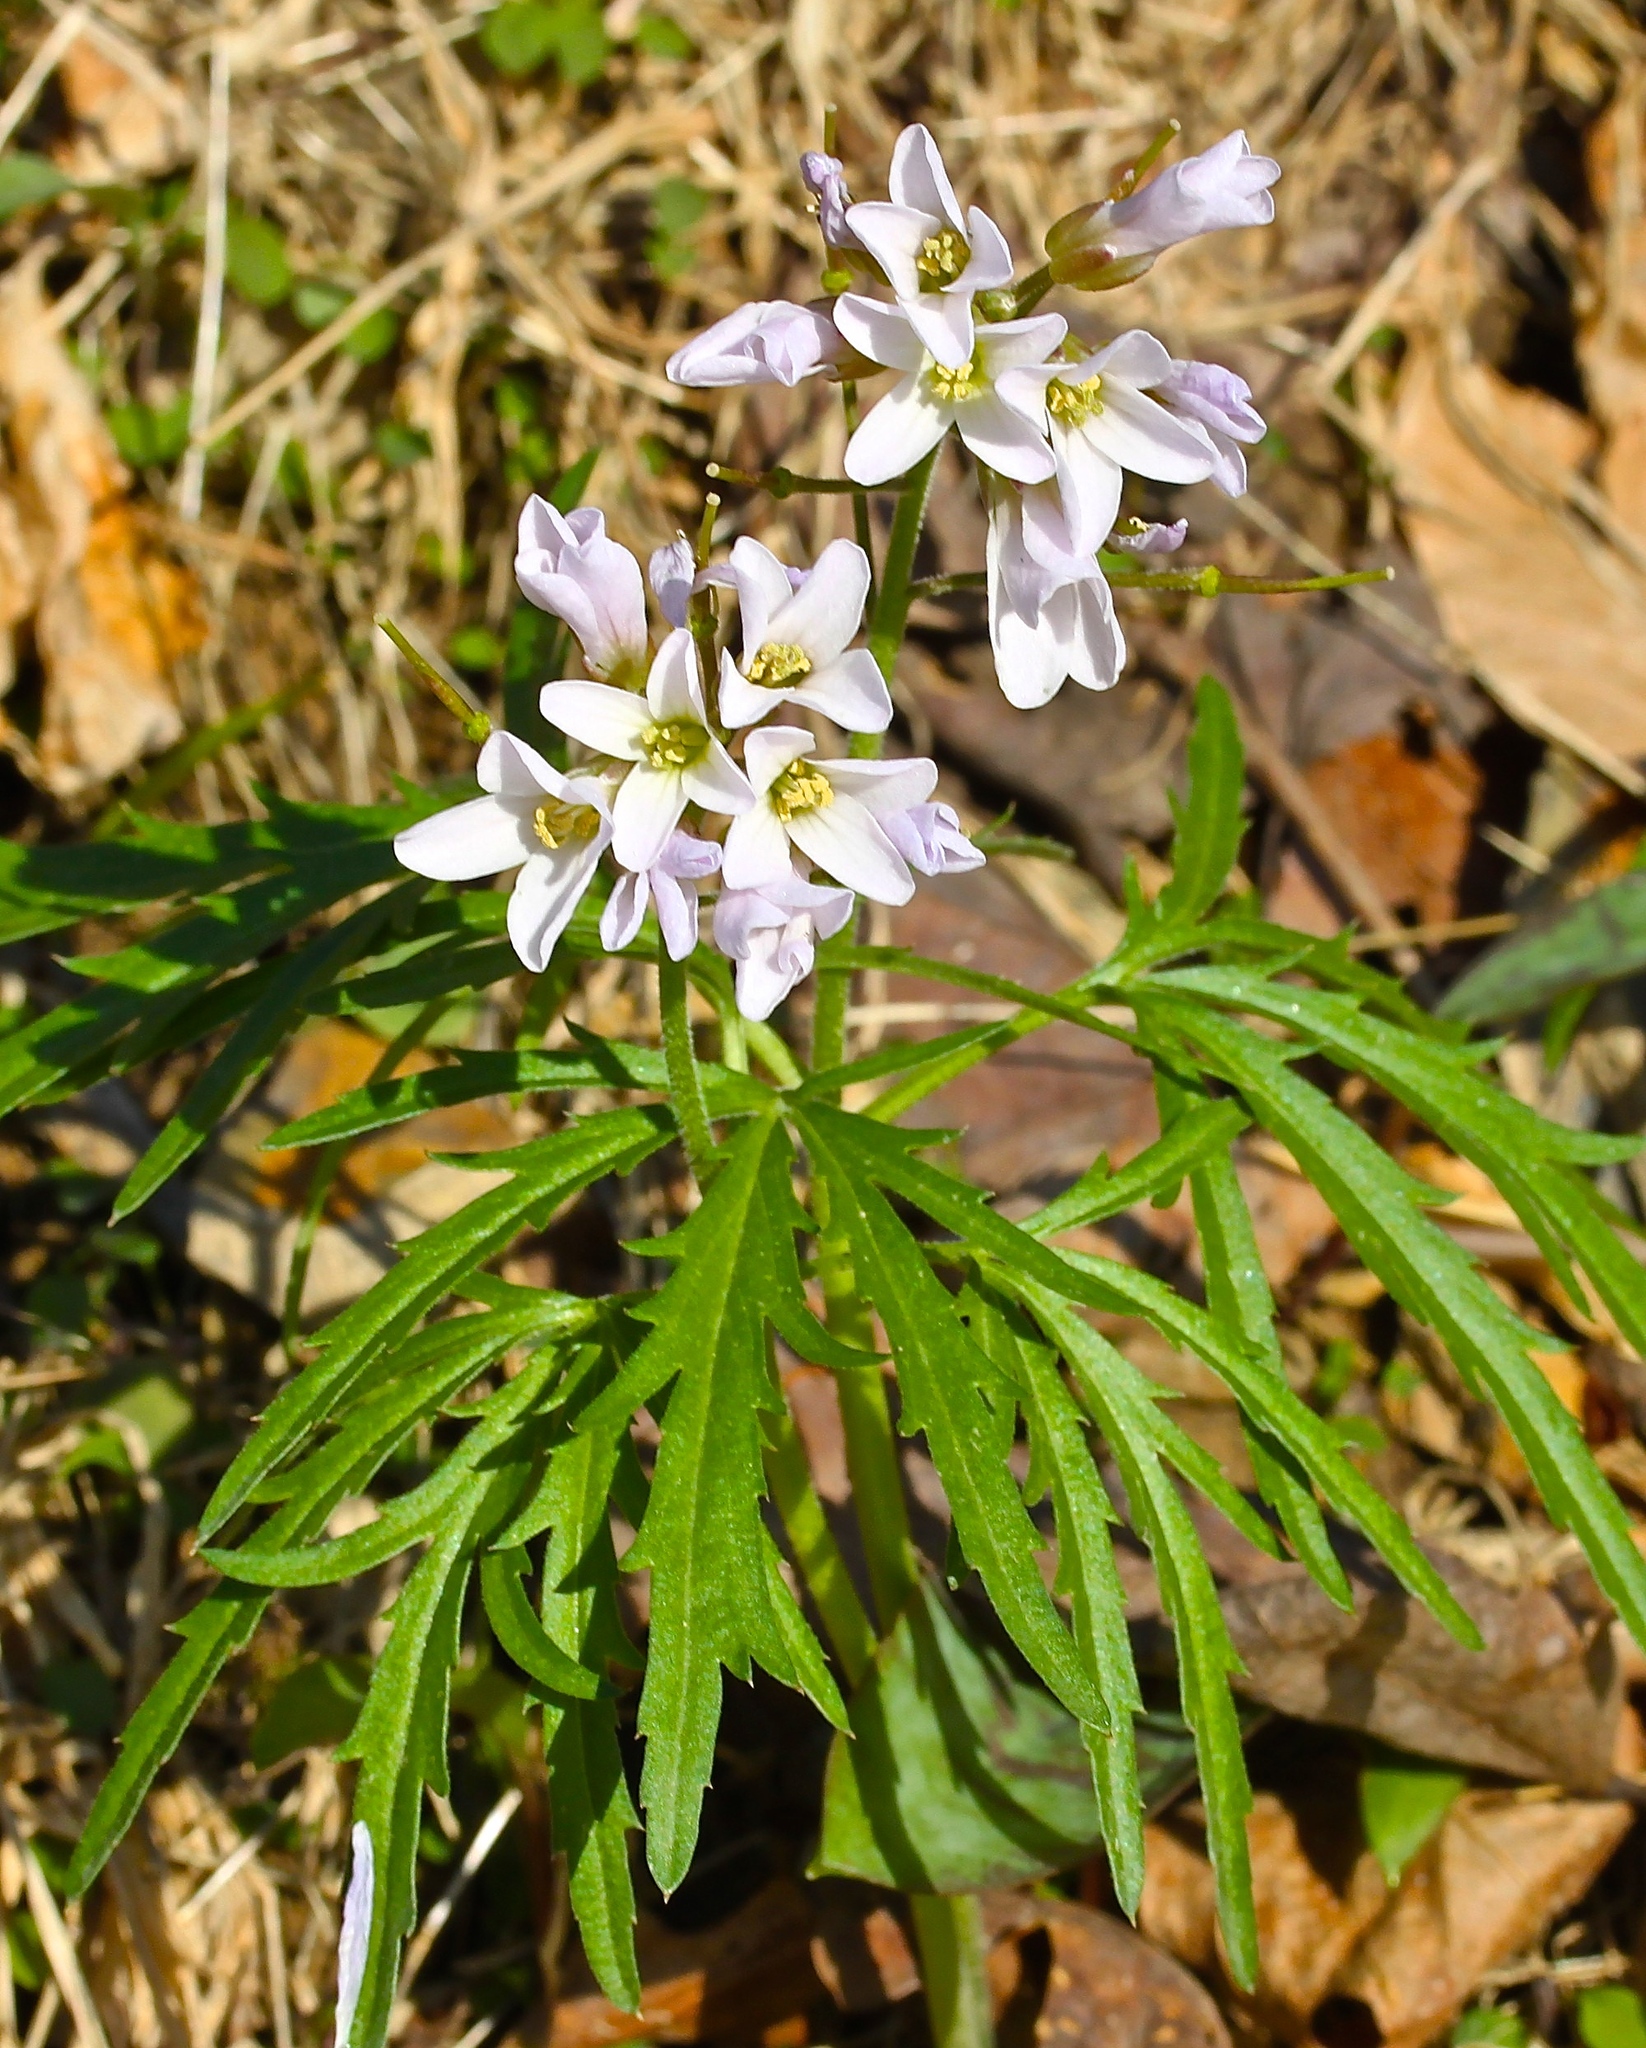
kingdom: Plantae
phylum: Tracheophyta
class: Magnoliopsida
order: Brassicales
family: Brassicaceae
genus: Cardamine
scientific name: Cardamine concatenata
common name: Cut-leaf toothcup
